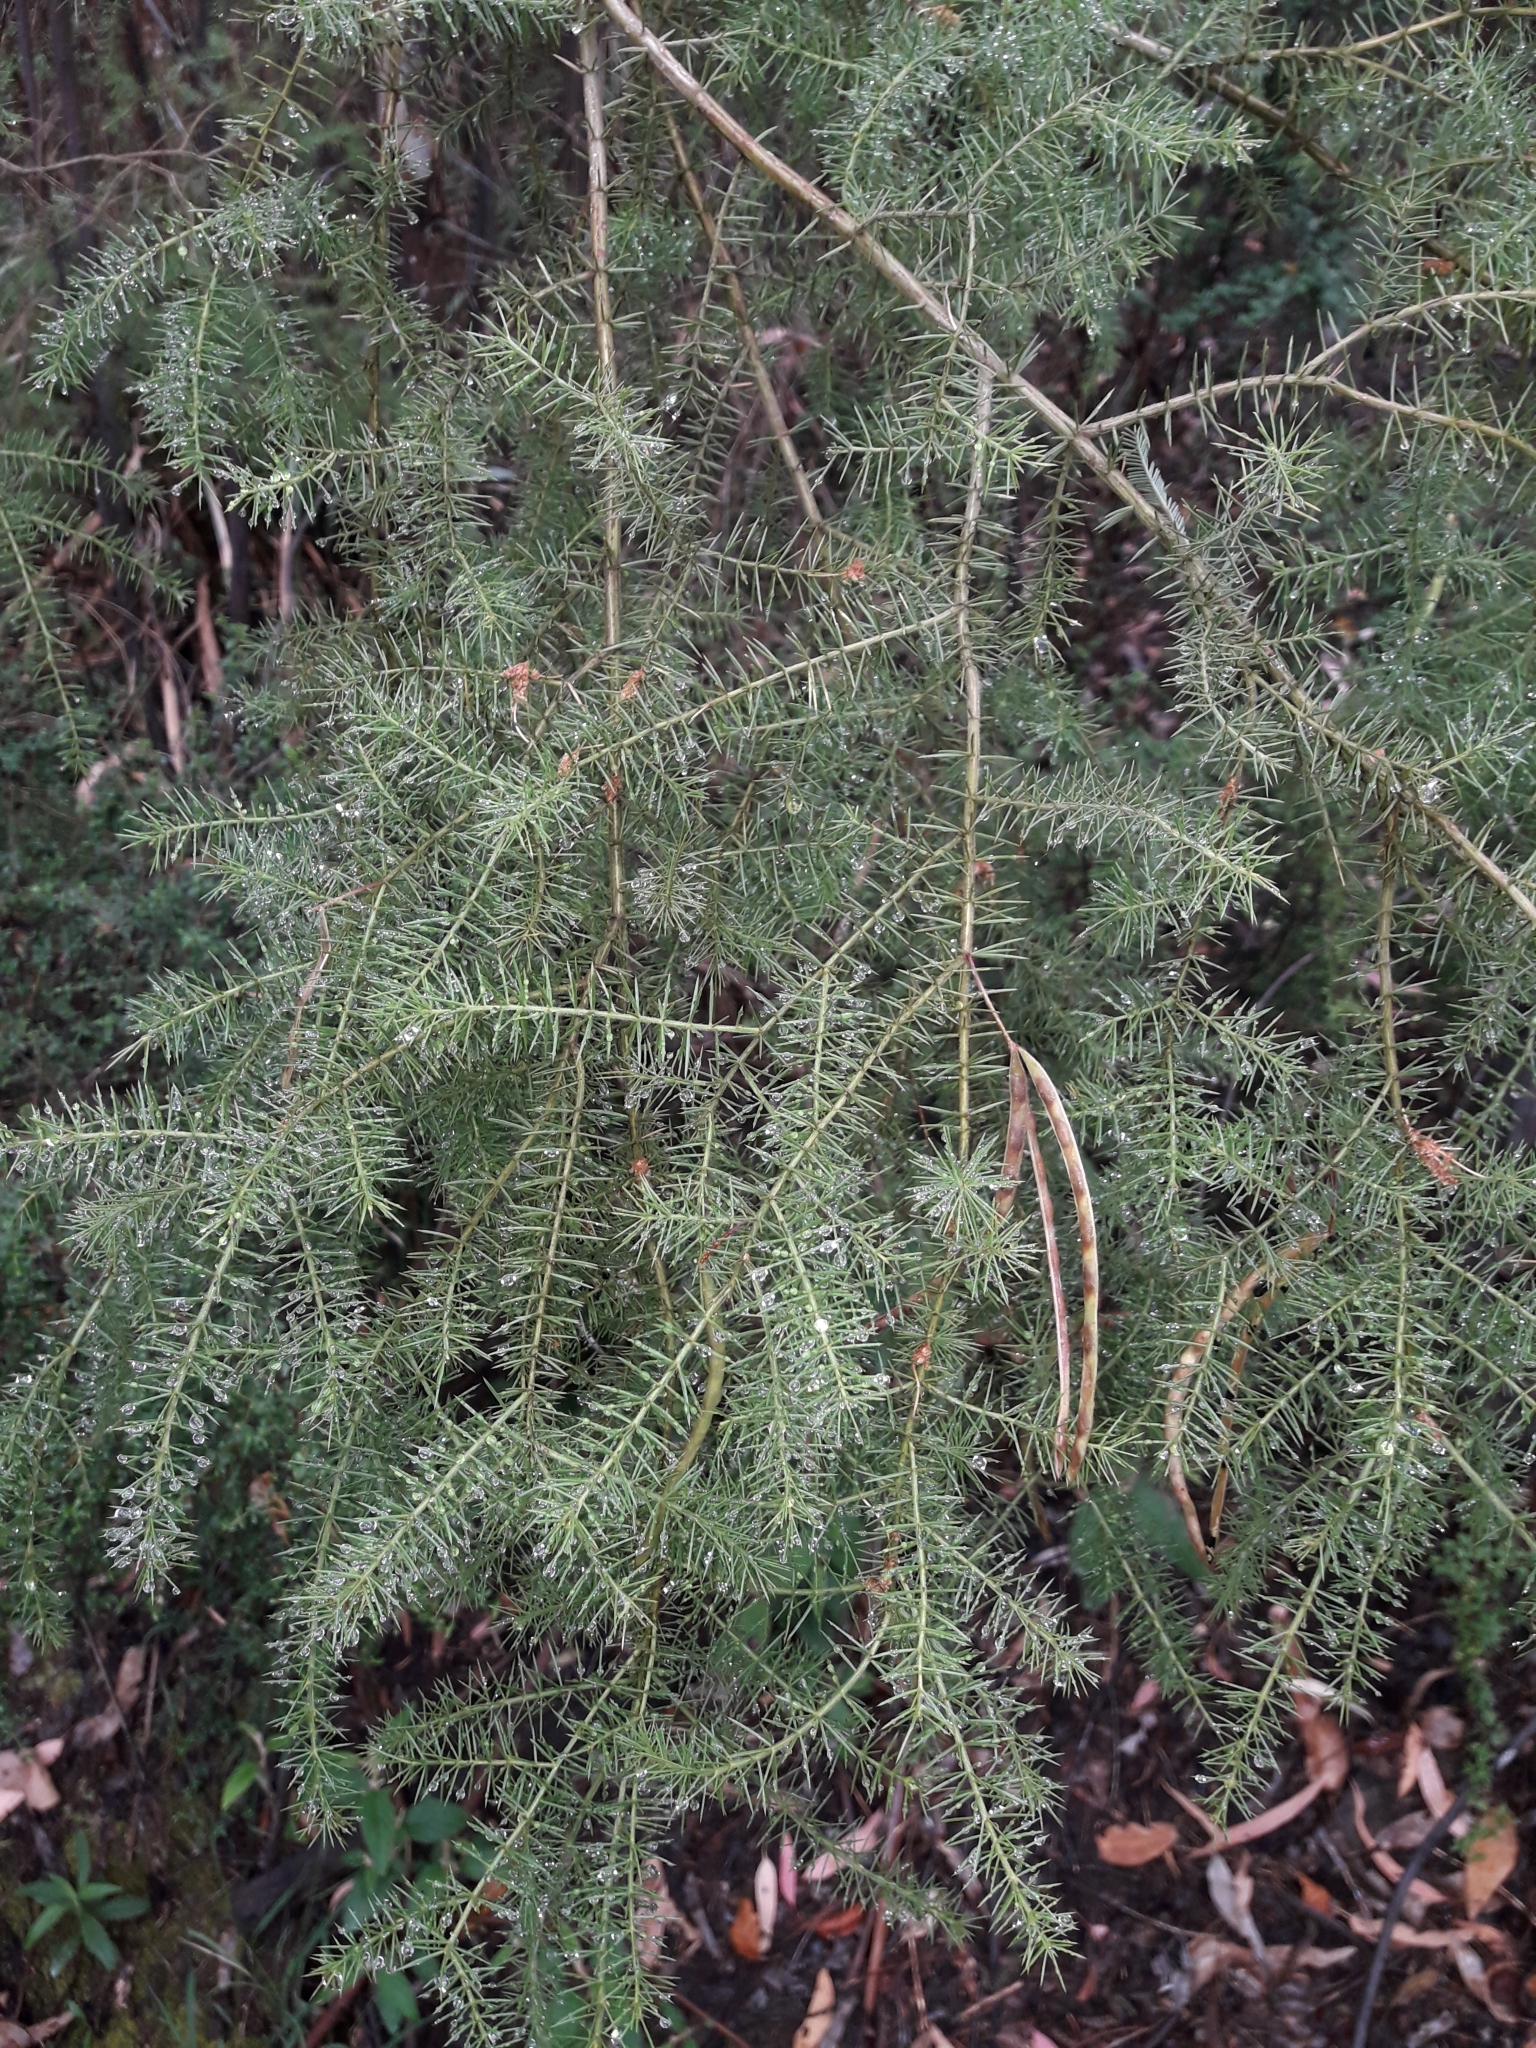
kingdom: Plantae
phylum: Tracheophyta
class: Magnoliopsida
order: Fabales
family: Fabaceae
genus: Acacia
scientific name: Acacia verticillata
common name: Prickly moses
